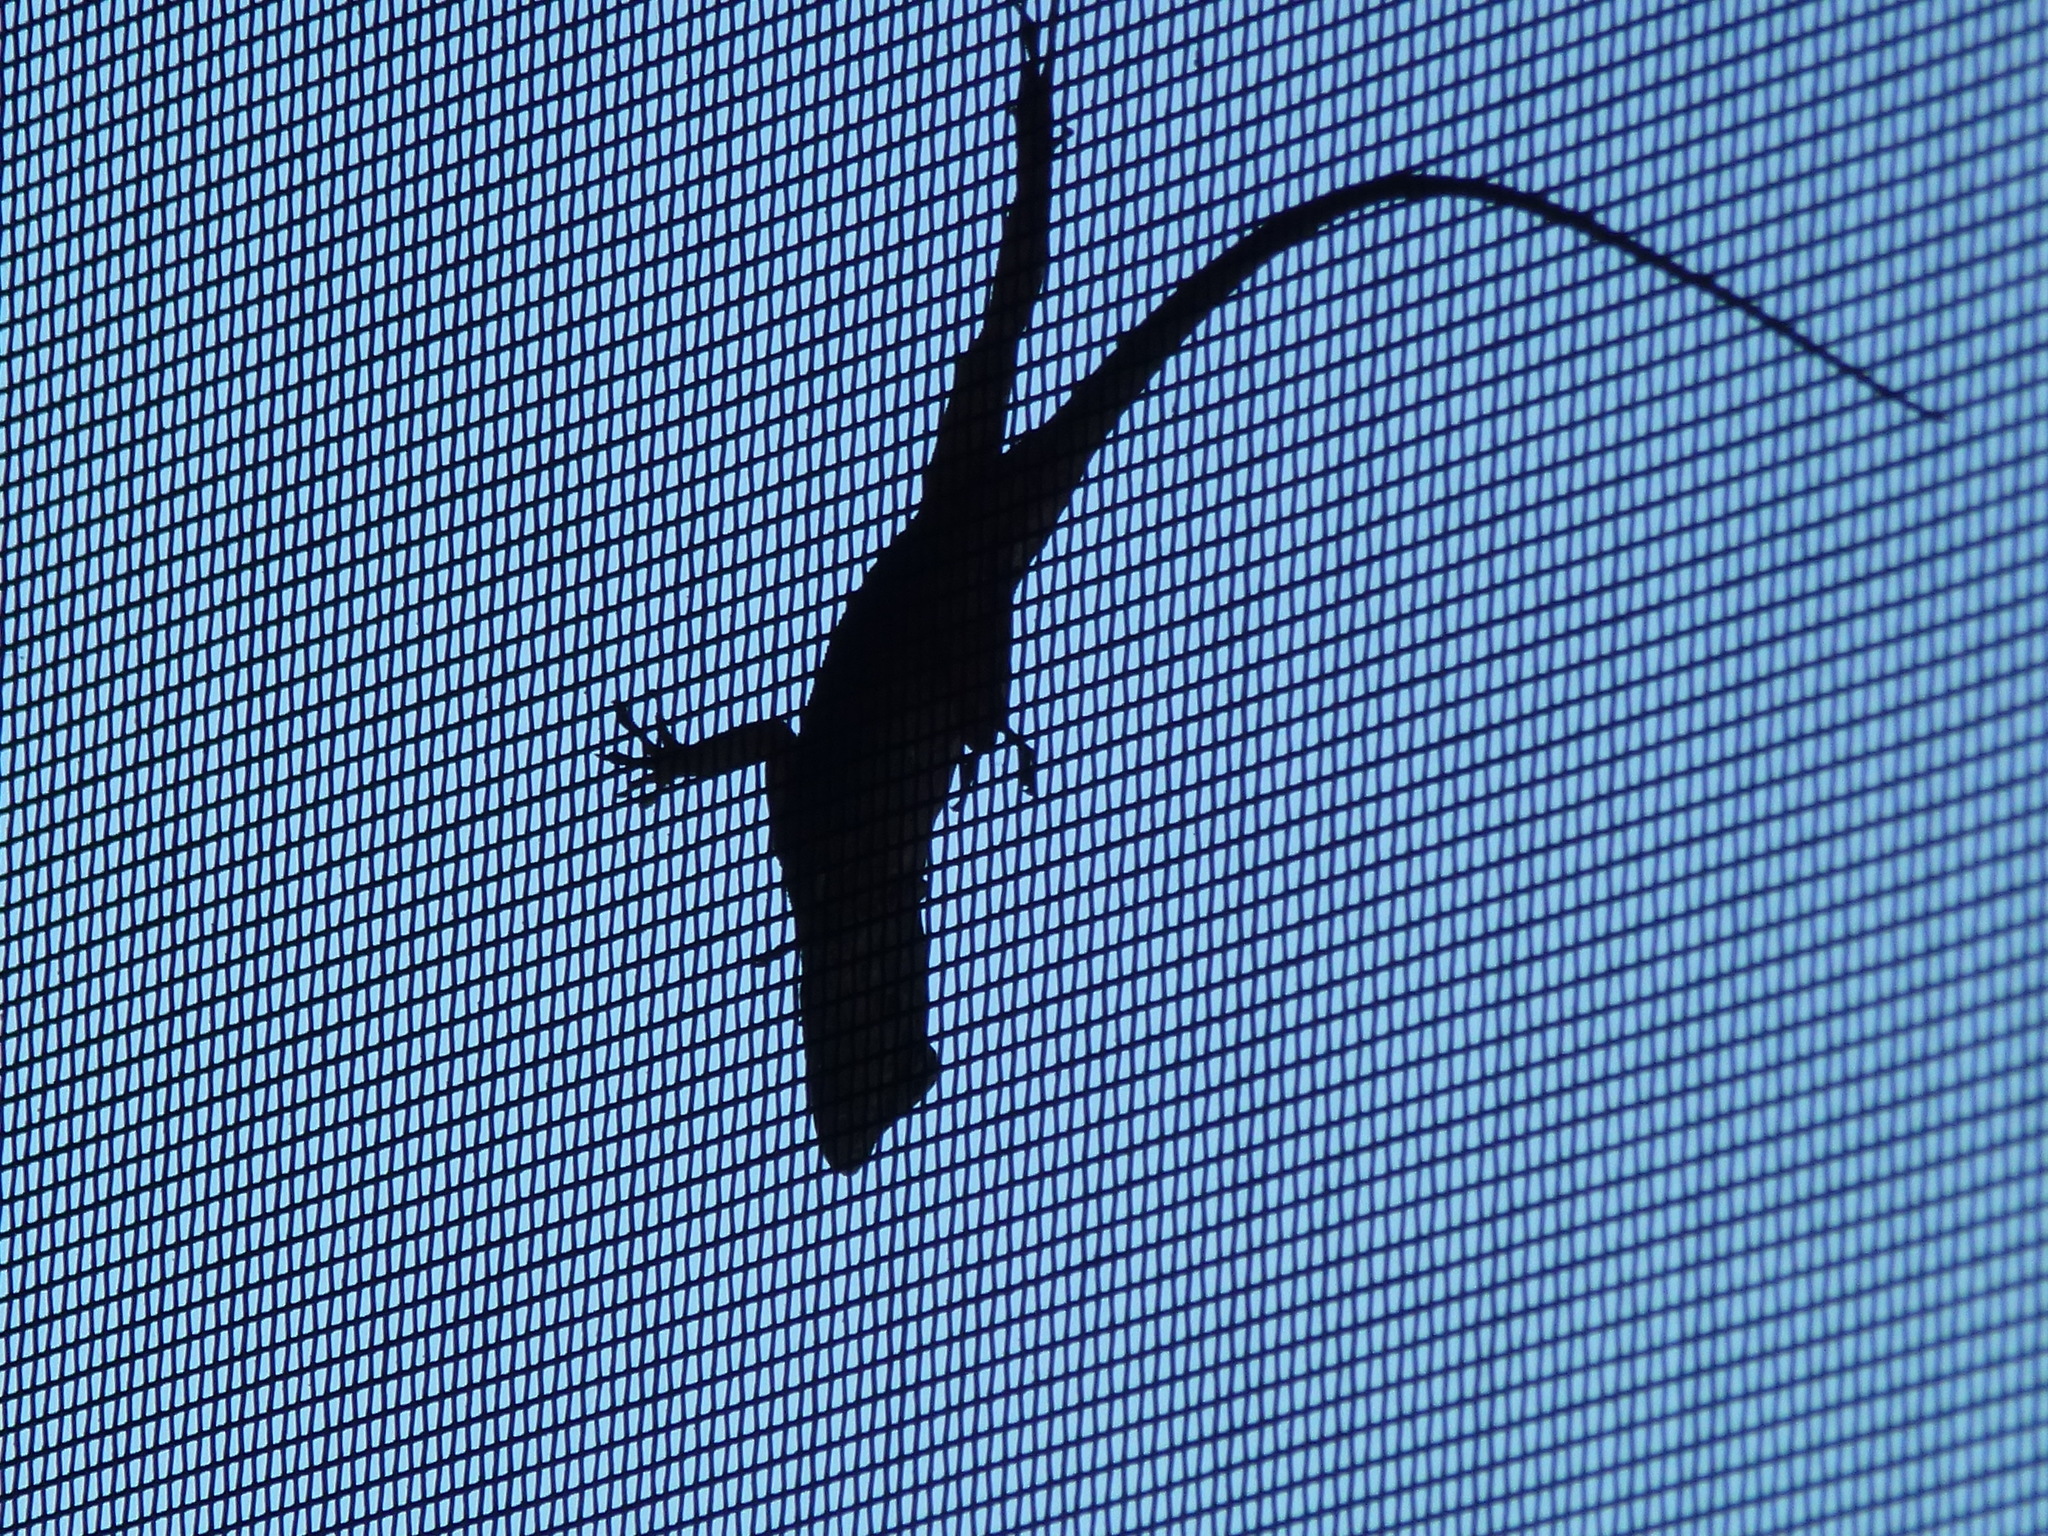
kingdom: Animalia
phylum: Chordata
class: Squamata
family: Dactyloidae
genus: Anolis
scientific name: Anolis
